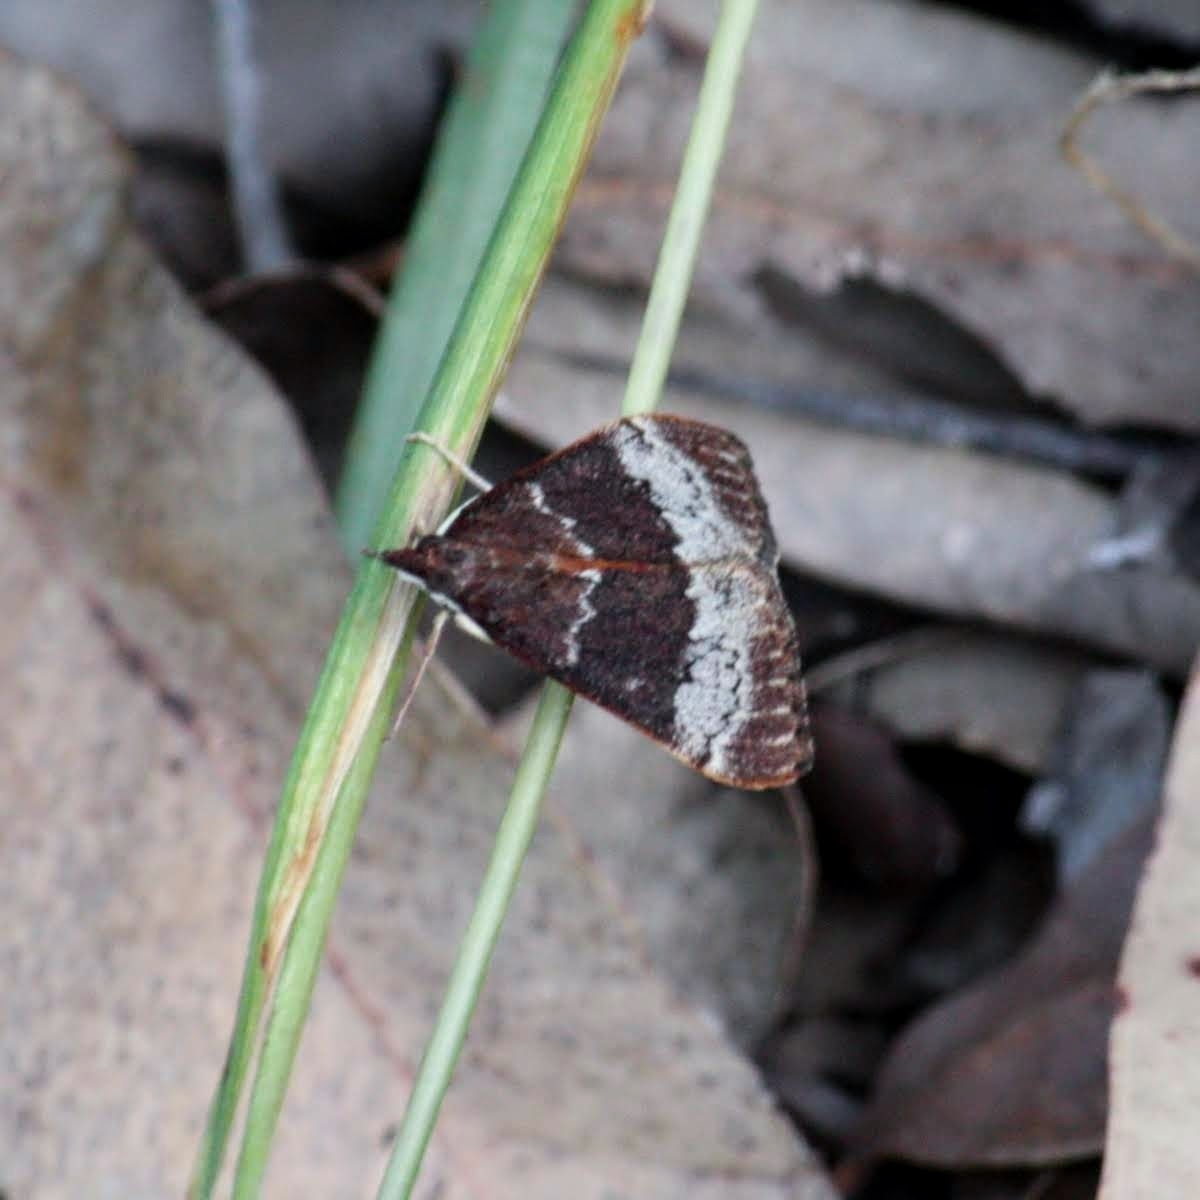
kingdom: Animalia
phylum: Arthropoda
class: Insecta
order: Lepidoptera
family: Crambidae
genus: Uresiphita
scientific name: Uresiphita ornithopteralis
